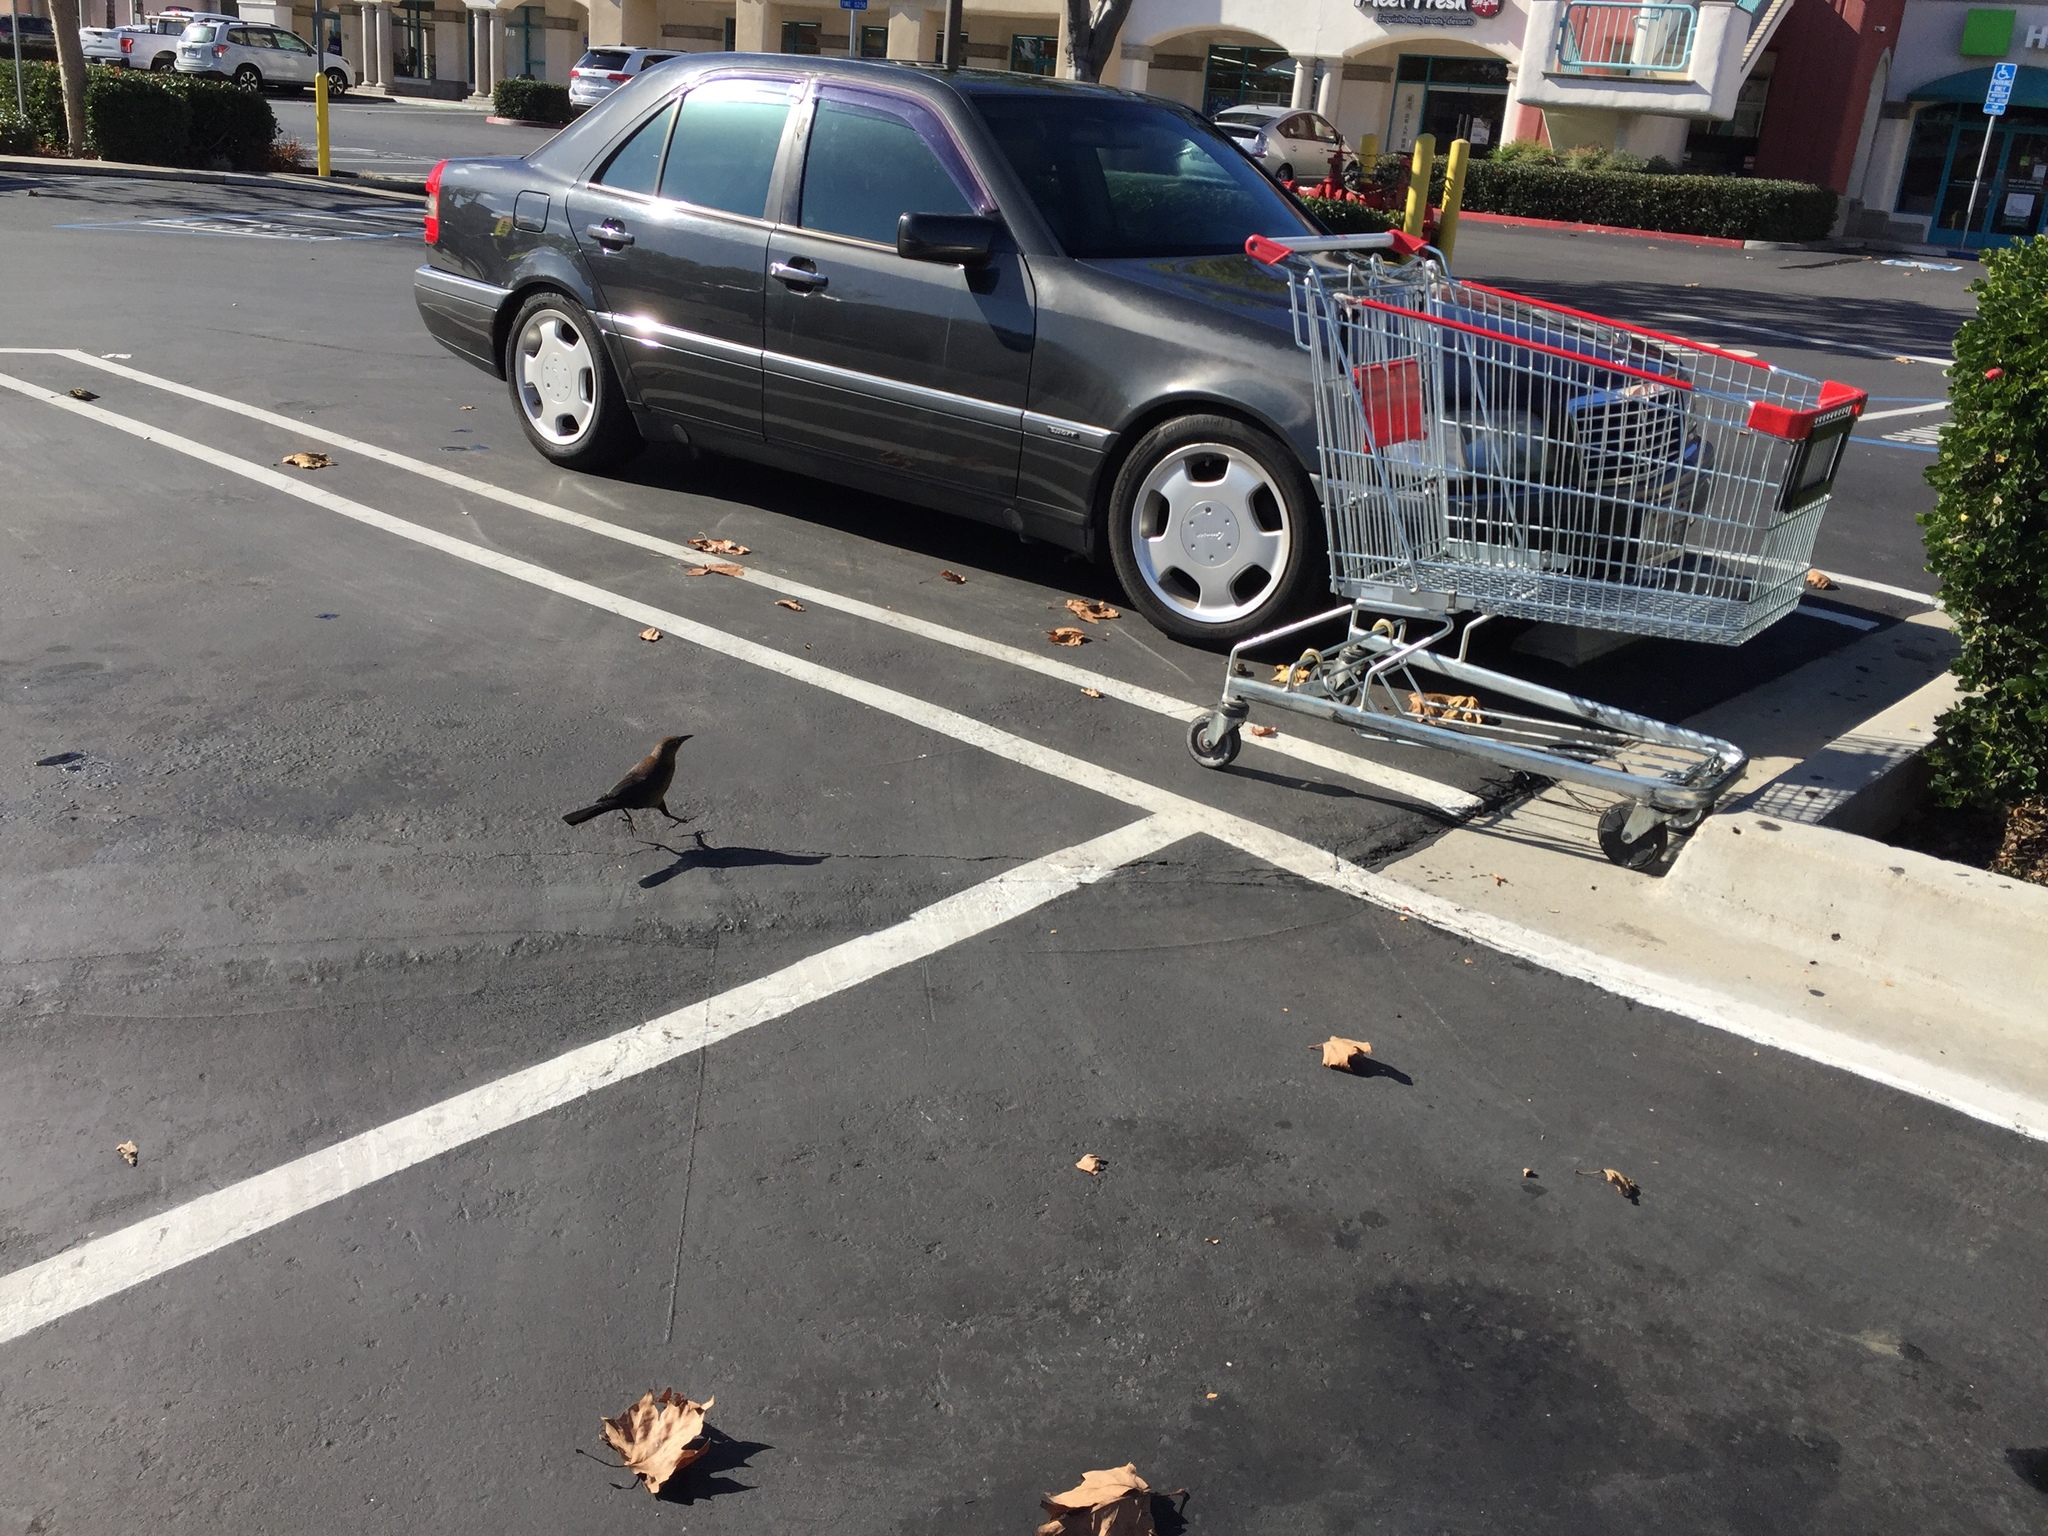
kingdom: Animalia
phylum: Chordata
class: Aves
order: Passeriformes
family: Icteridae
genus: Quiscalus
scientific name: Quiscalus mexicanus
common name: Great-tailed grackle
